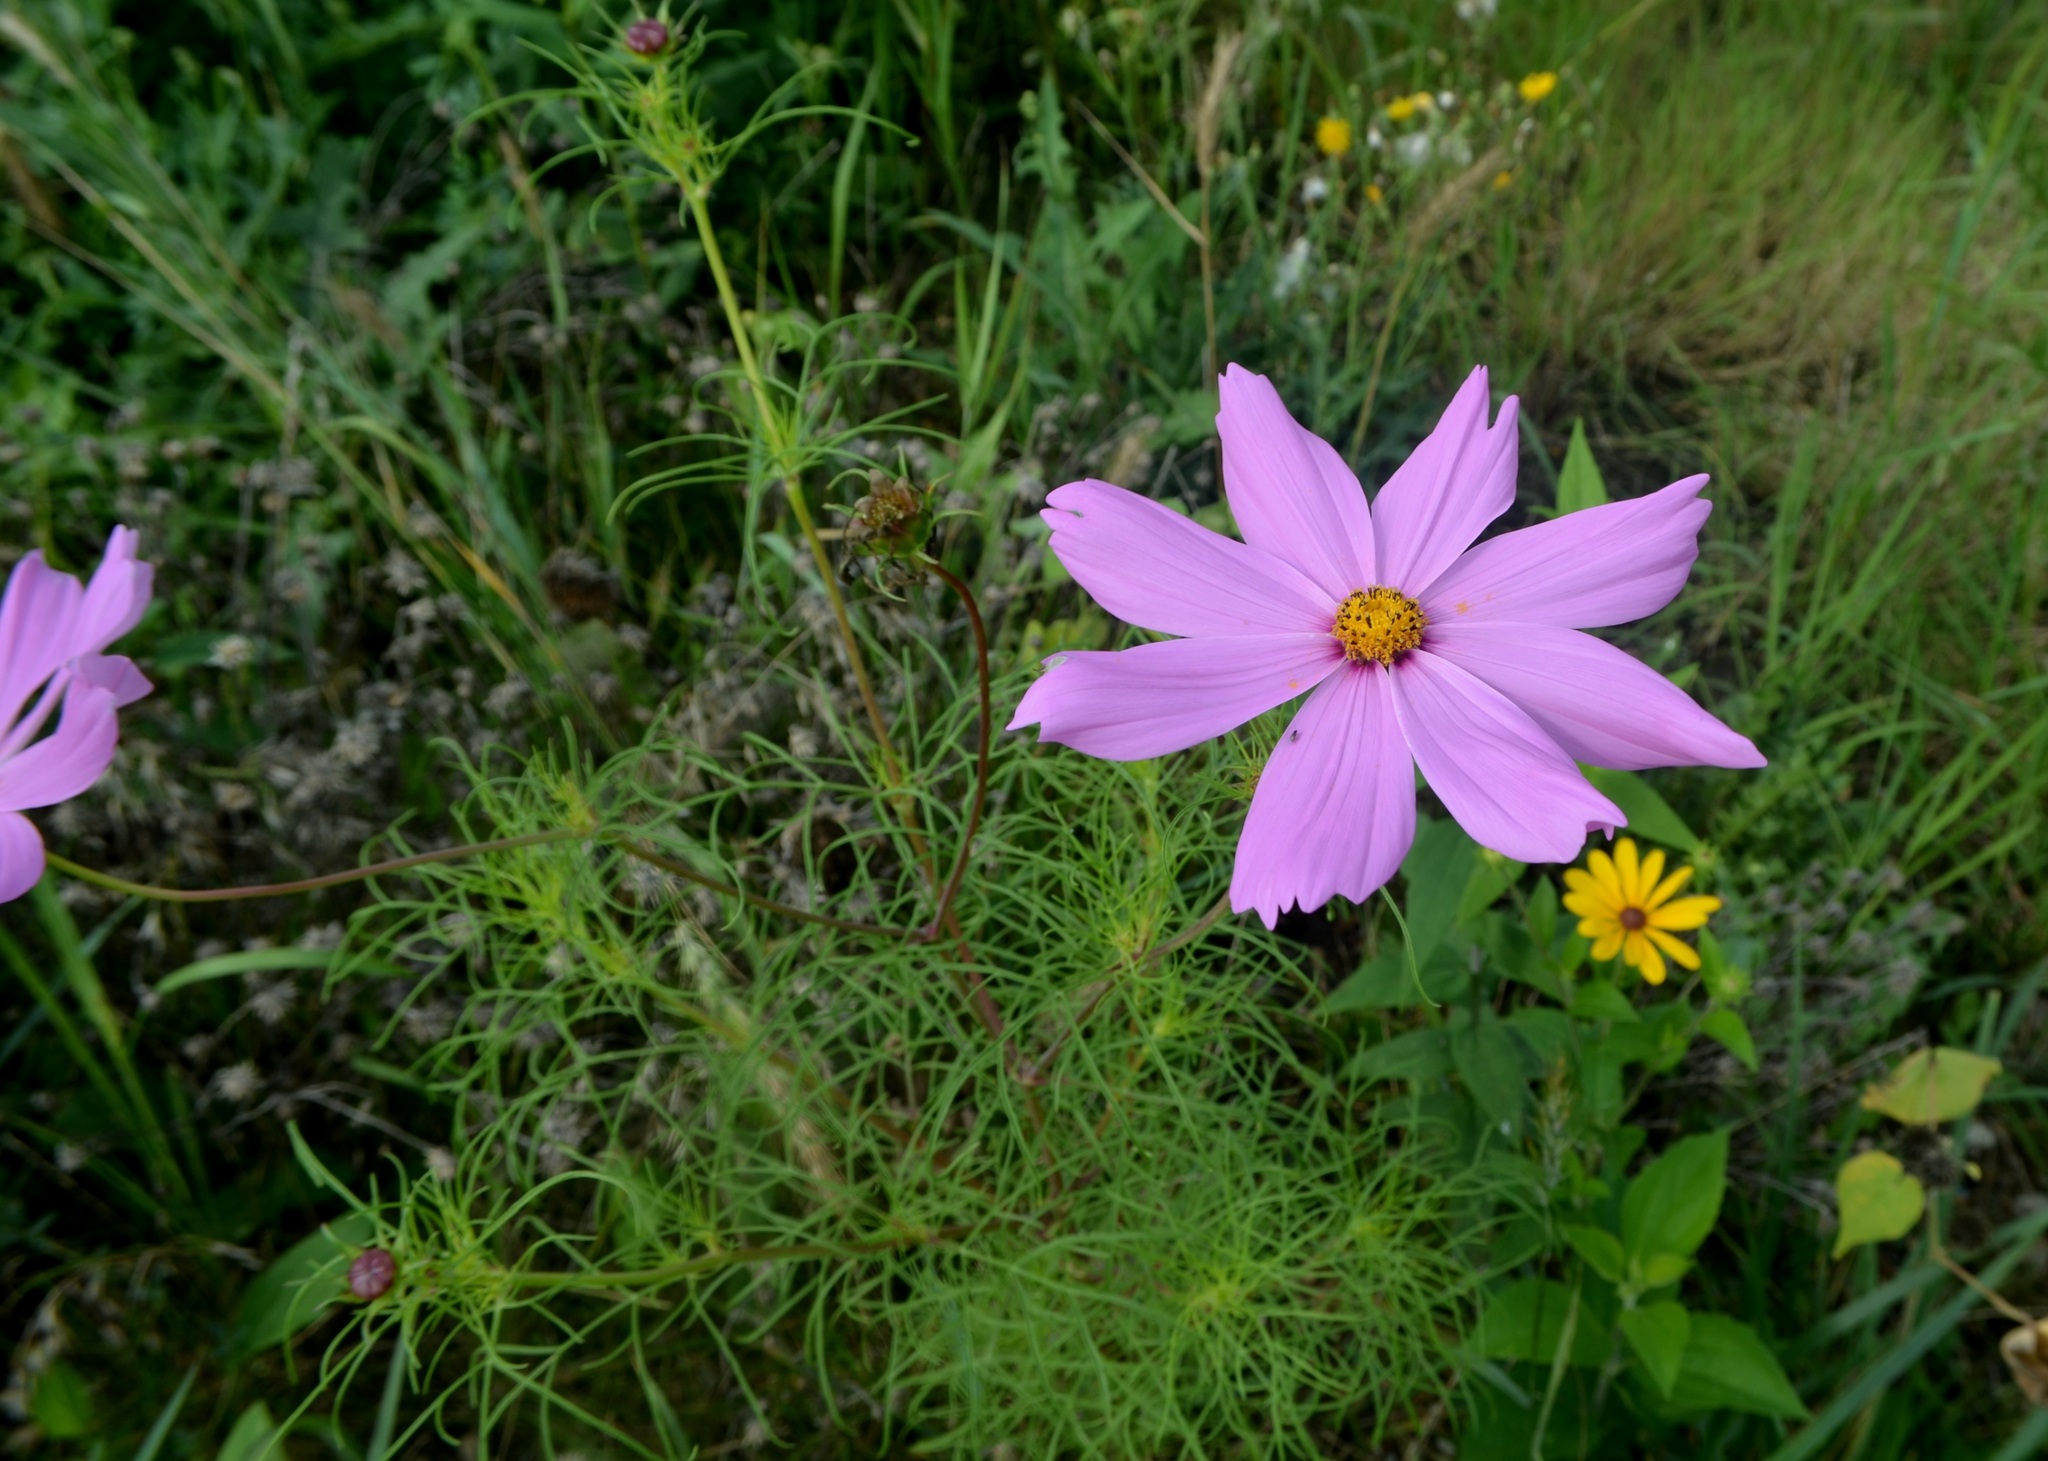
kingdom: Plantae
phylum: Tracheophyta
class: Magnoliopsida
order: Asterales
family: Asteraceae
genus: Cosmos
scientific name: Cosmos bipinnatus
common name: Garden cosmos
